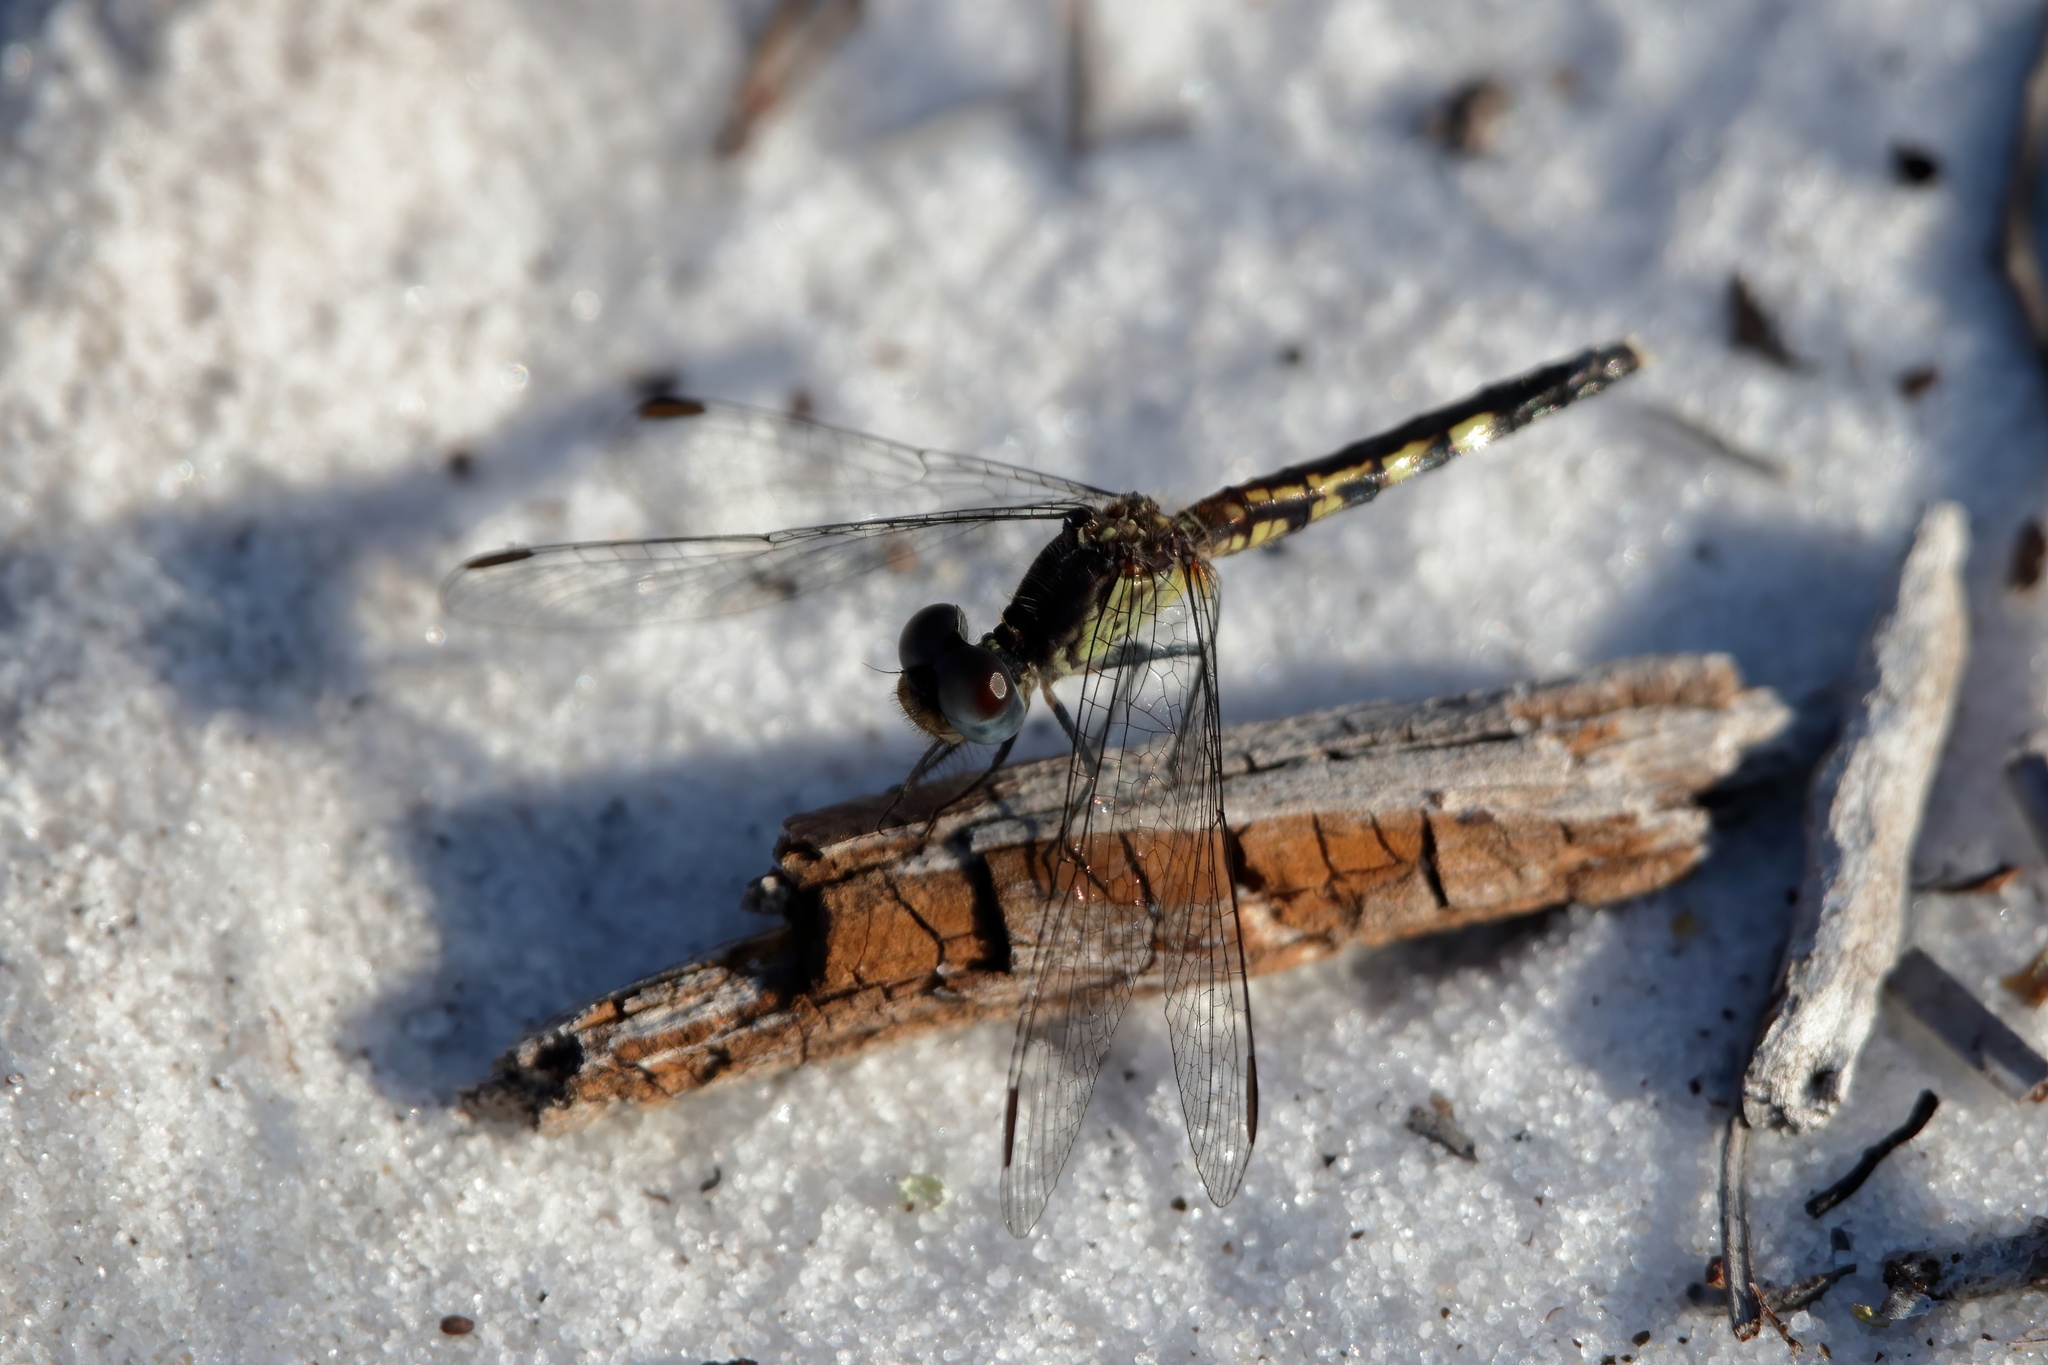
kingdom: Animalia
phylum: Arthropoda
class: Insecta
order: Odonata
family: Libellulidae
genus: Erythrodiplax
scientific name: Erythrodiplax minuscula
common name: Little blue dragonlet
